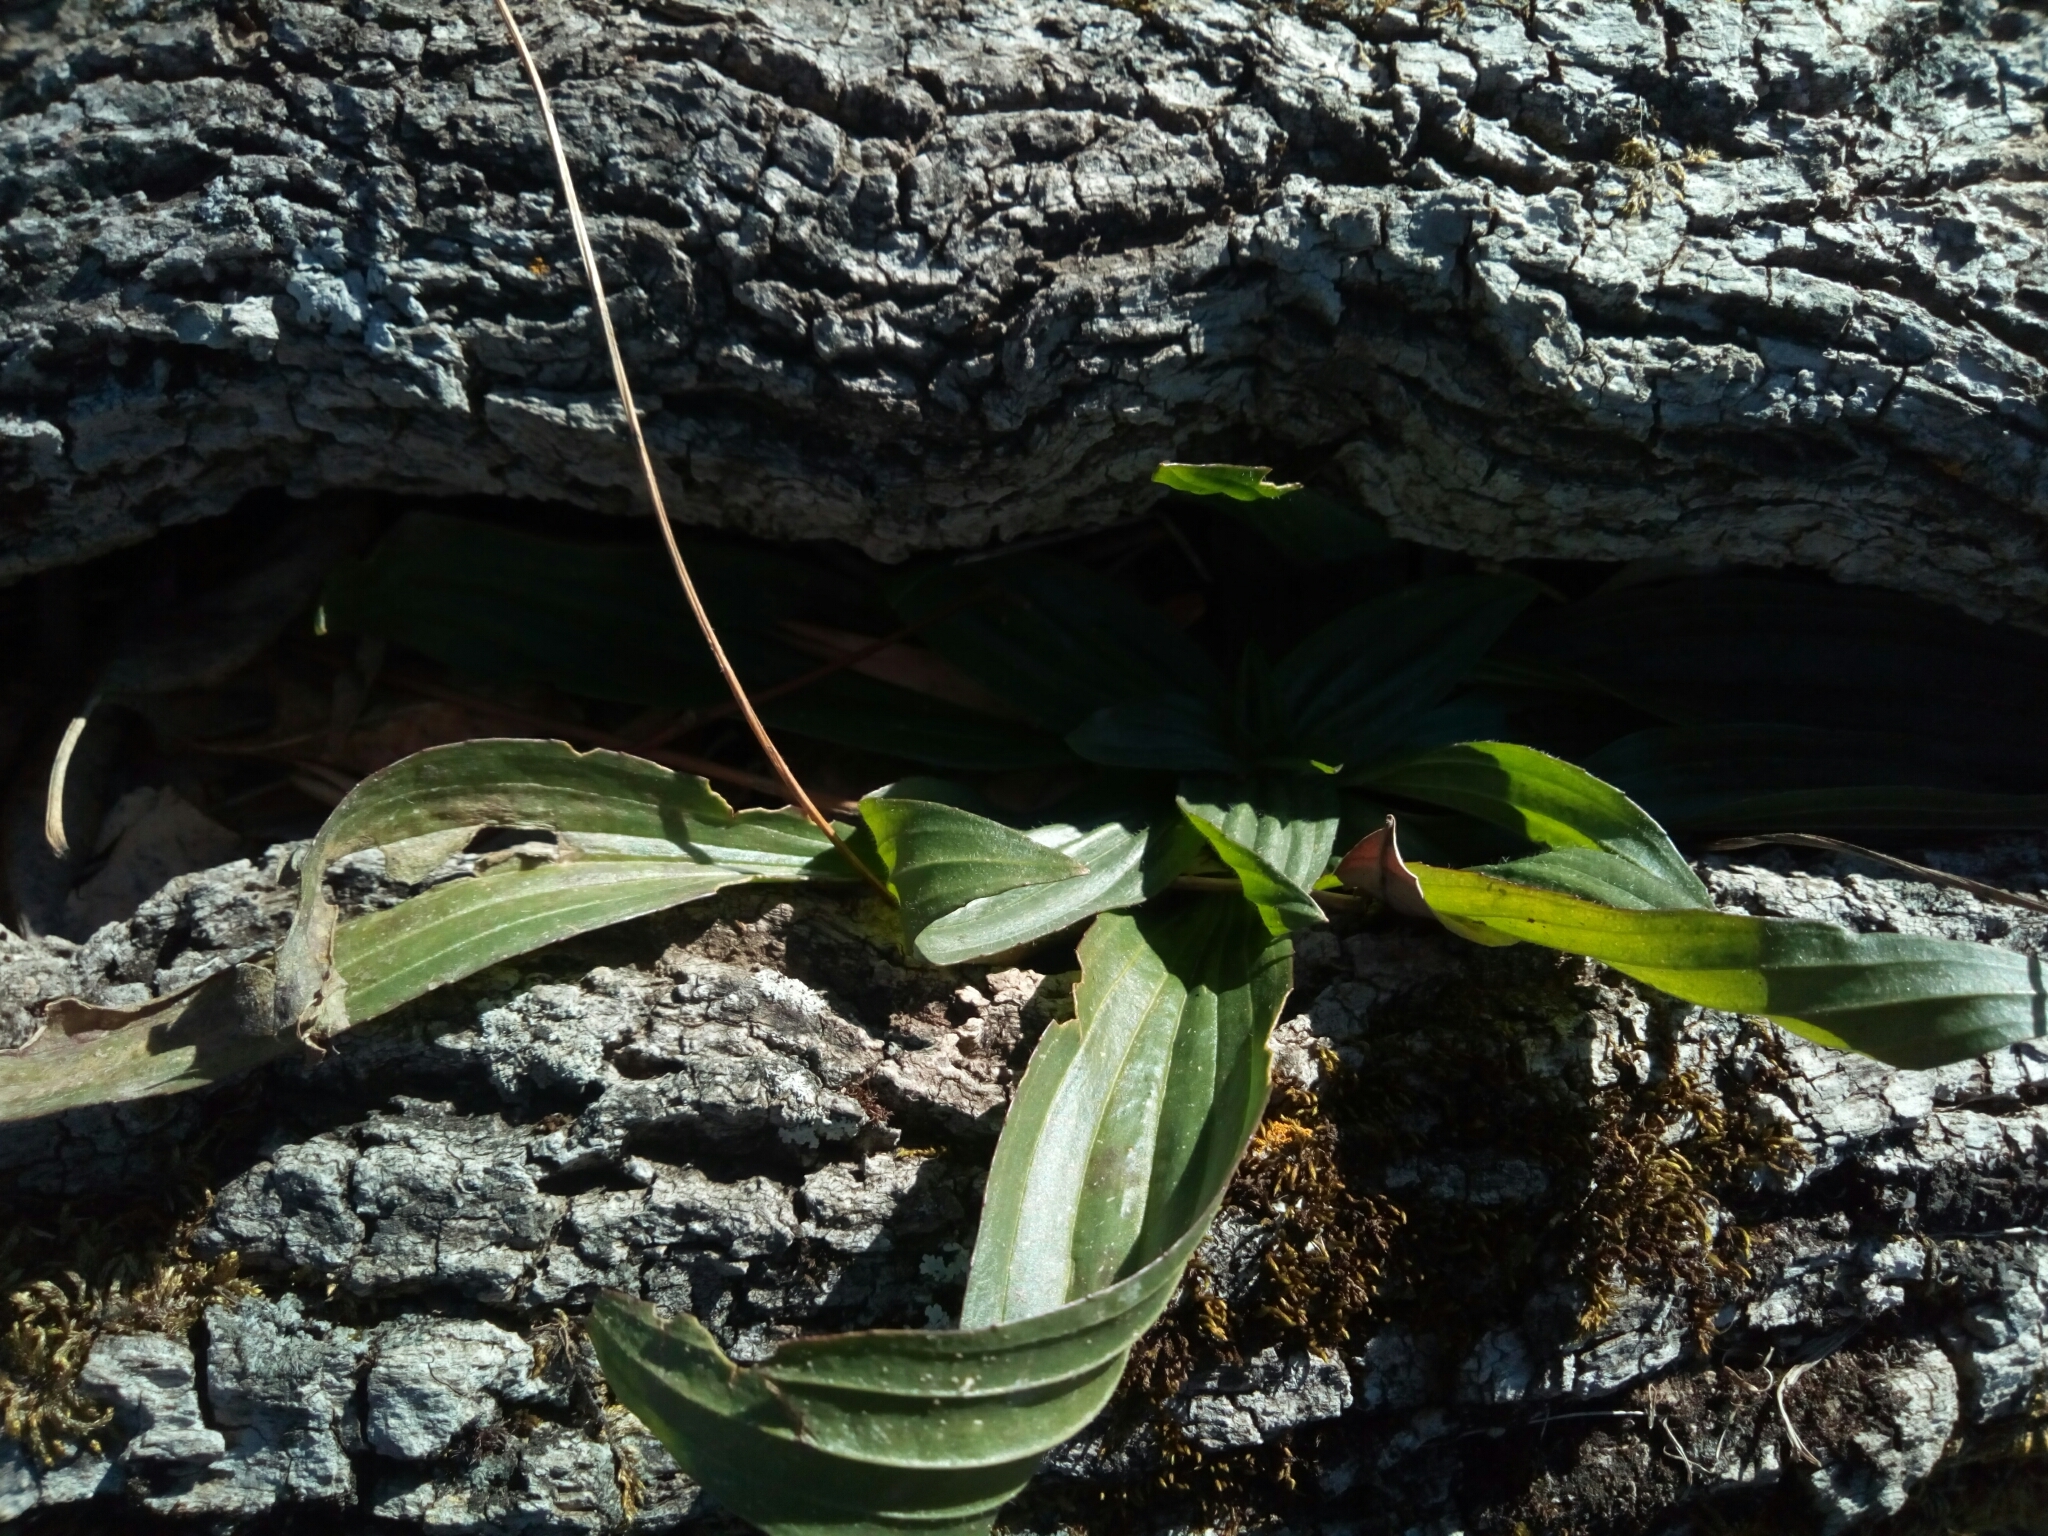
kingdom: Plantae
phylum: Tracheophyta
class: Magnoliopsida
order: Lamiales
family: Plantaginaceae
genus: Plantago
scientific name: Plantago lanceolata
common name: Ribwort plantain
